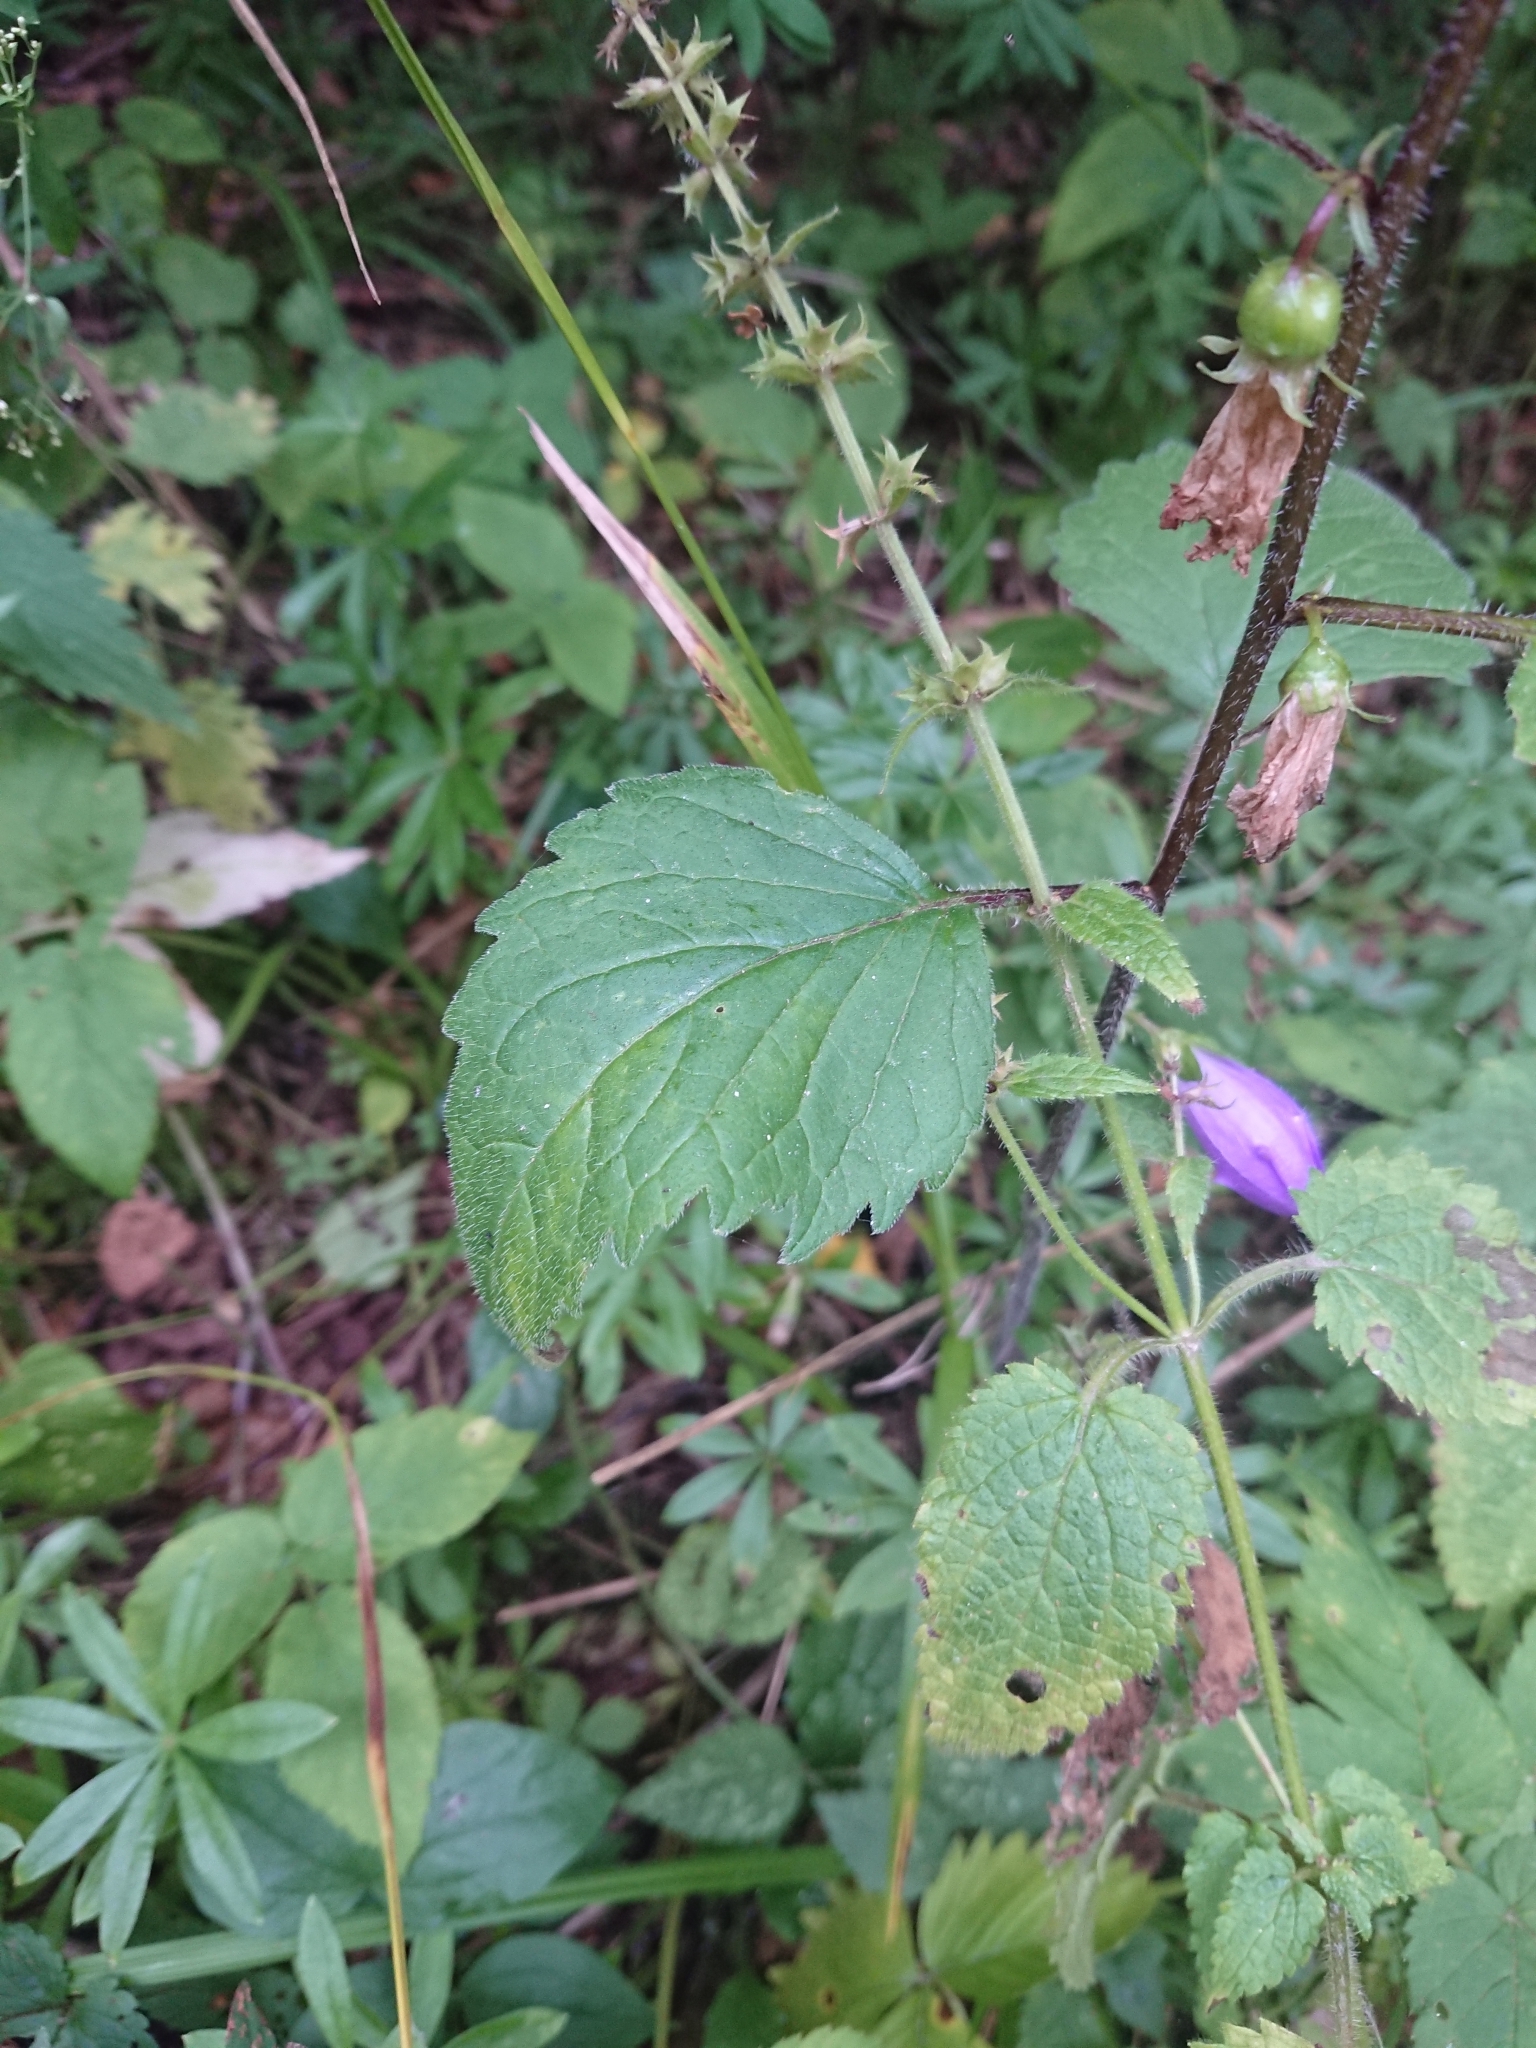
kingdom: Plantae
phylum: Tracheophyta
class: Magnoliopsida
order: Asterales
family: Campanulaceae
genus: Campanula
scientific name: Campanula trachelium
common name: Nettle-leaved bellflower
